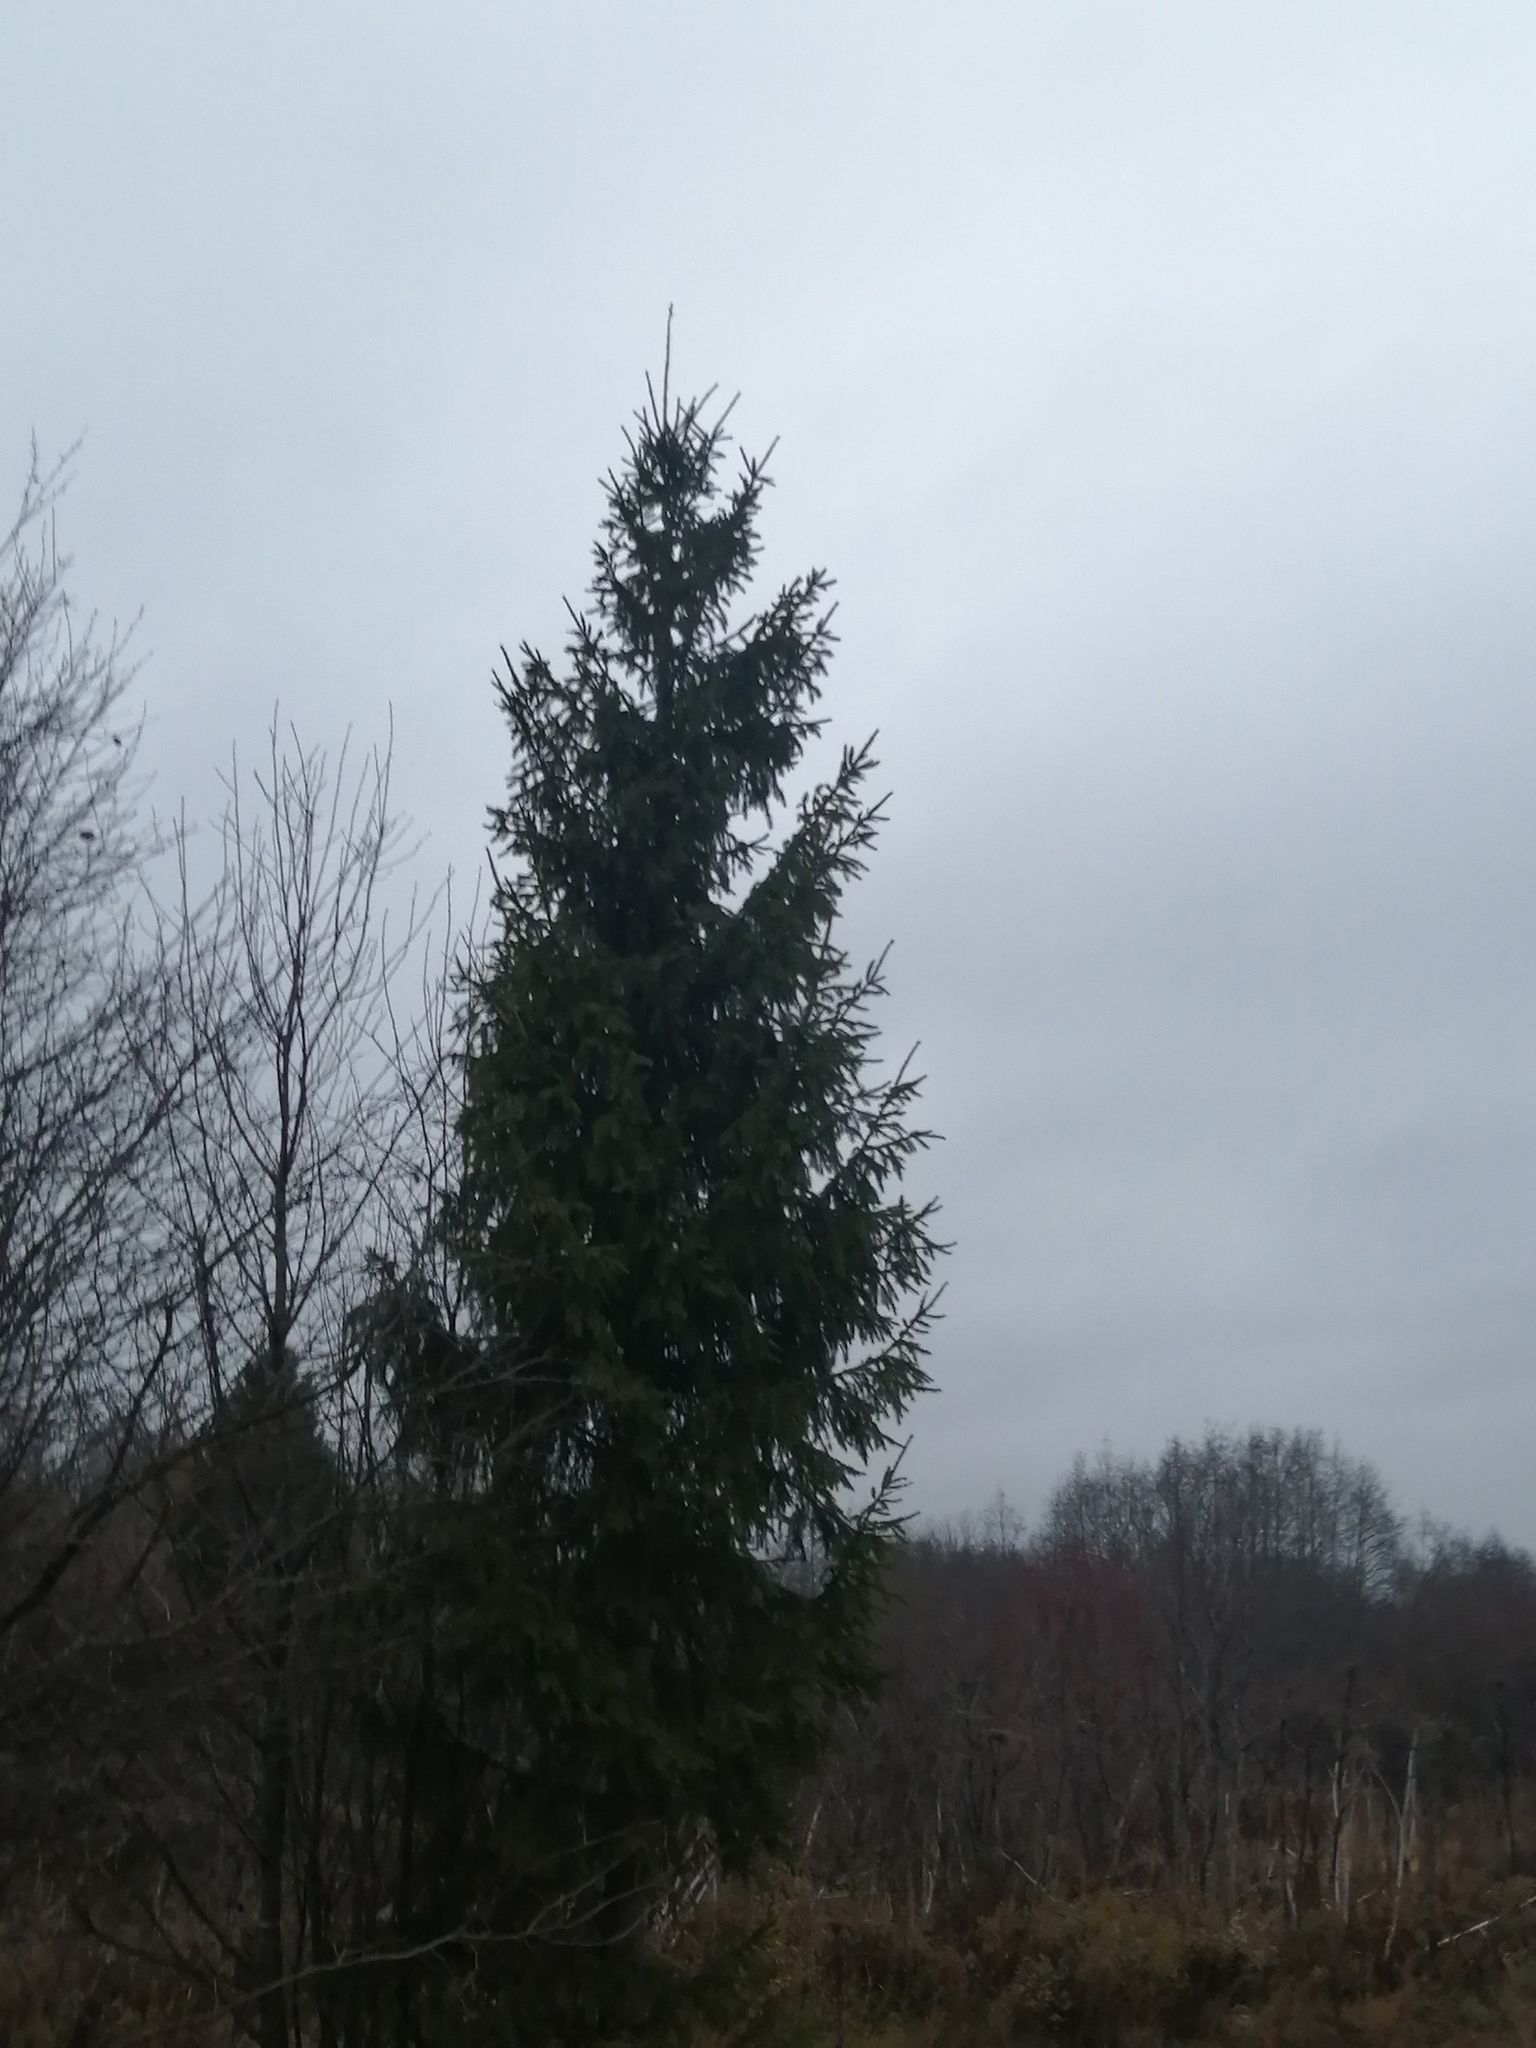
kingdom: Plantae
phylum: Tracheophyta
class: Pinopsida
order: Pinales
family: Pinaceae
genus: Picea
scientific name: Picea
